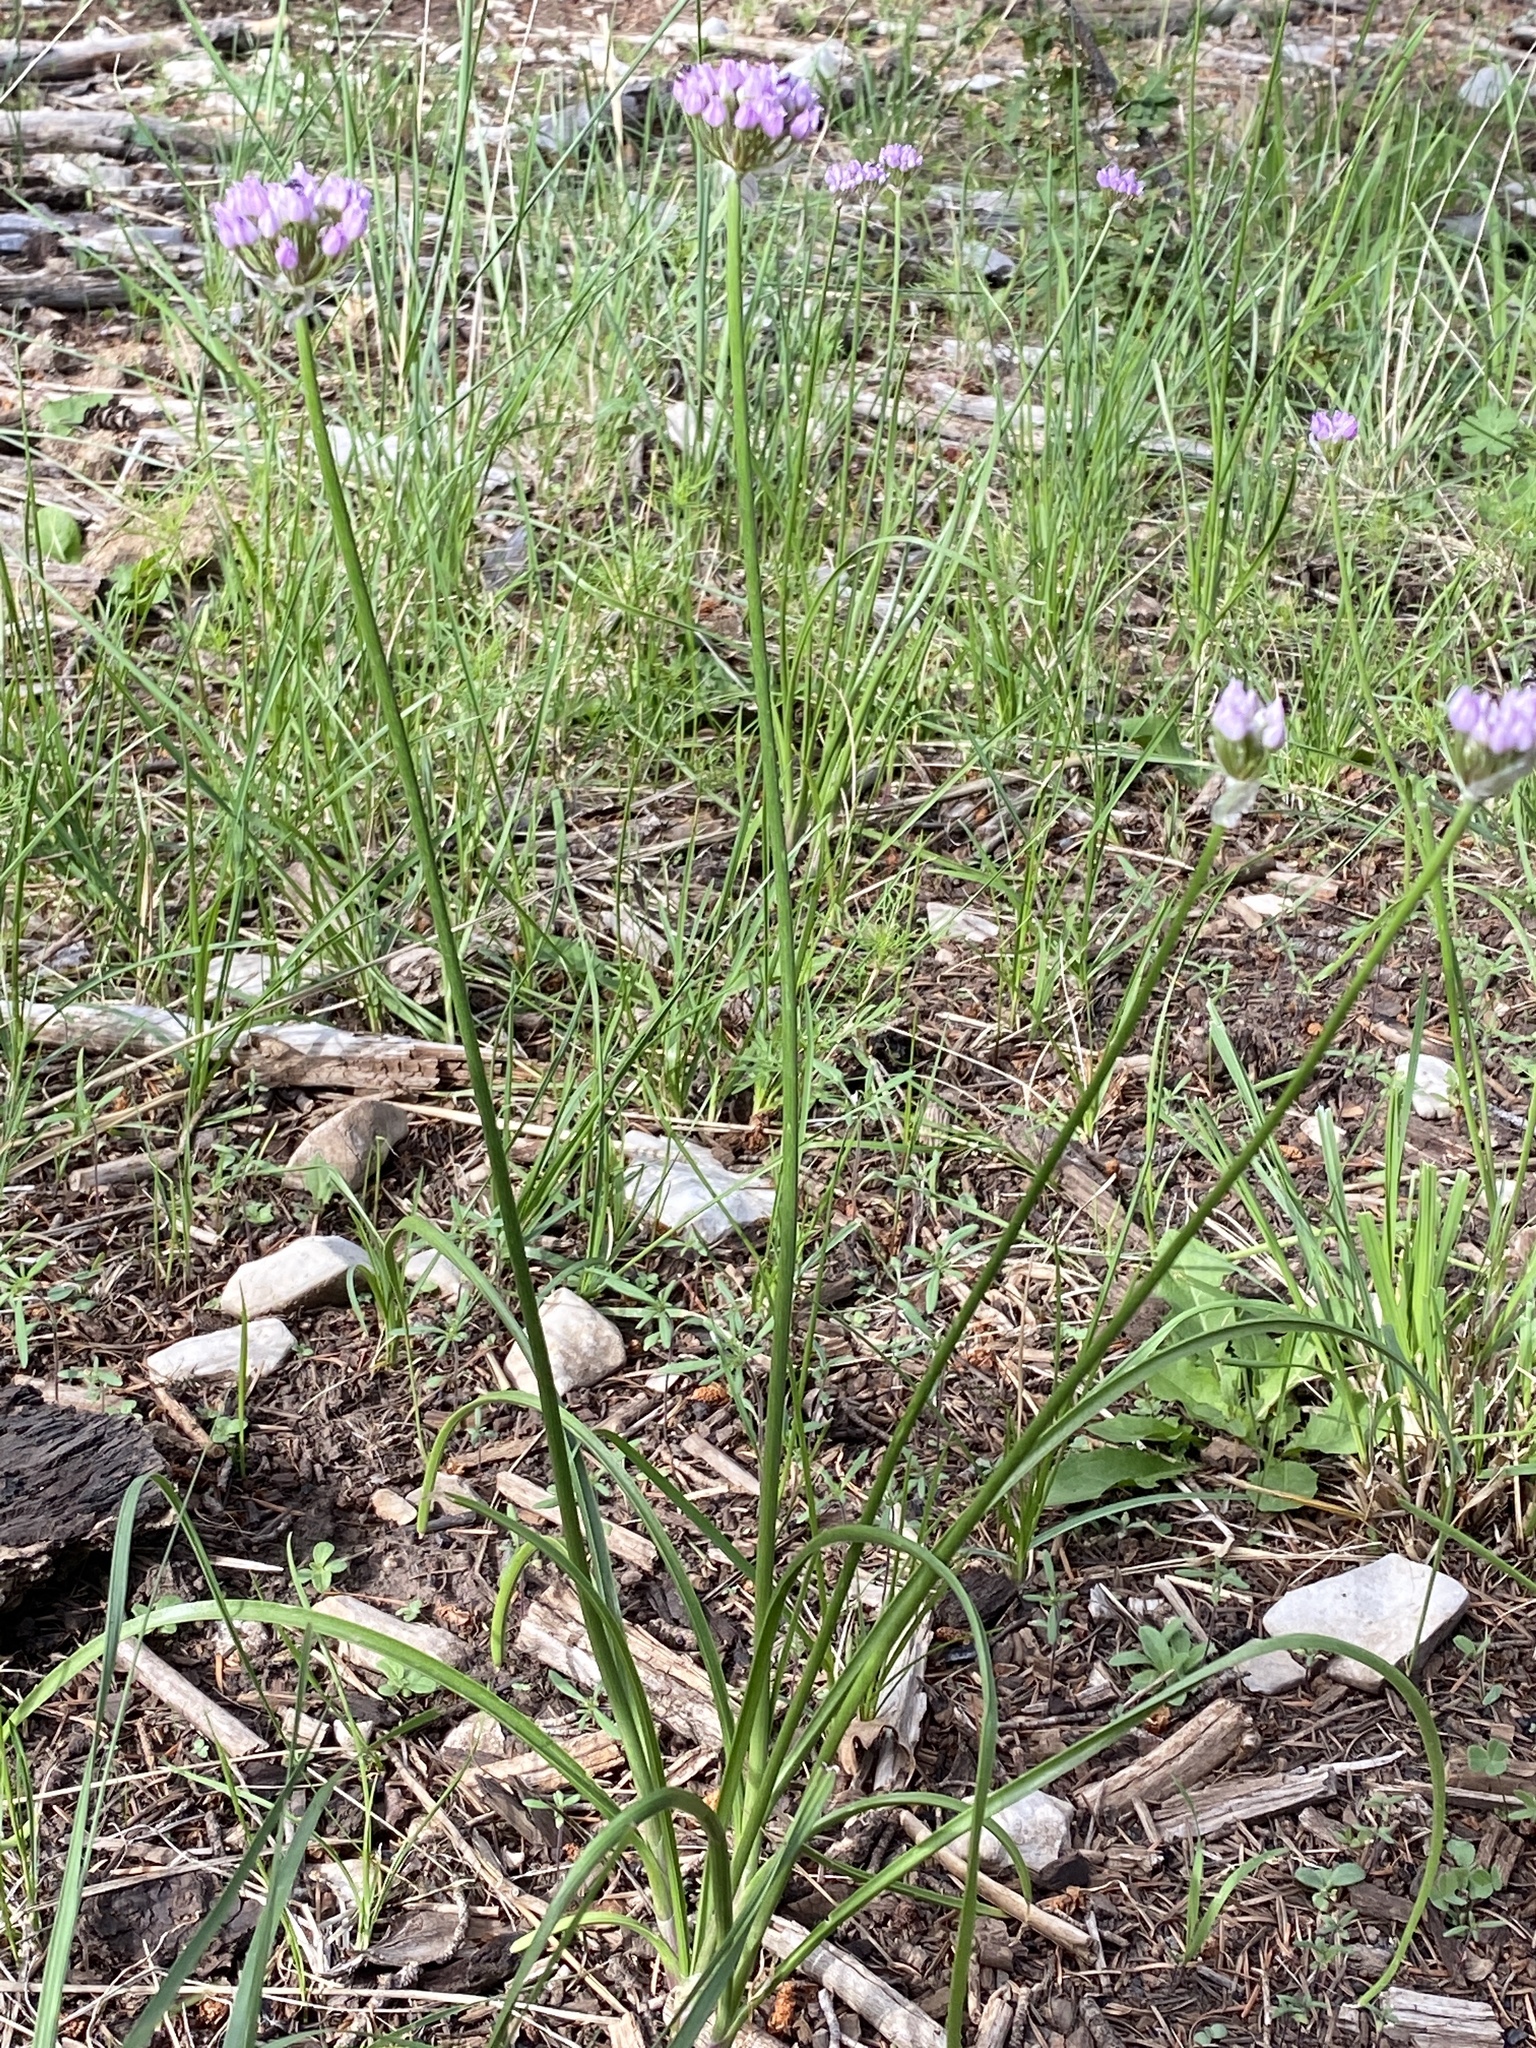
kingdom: Plantae
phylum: Tracheophyta
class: Liliopsida
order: Asparagales
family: Amaryllidaceae
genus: Allium
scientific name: Allium geyeri
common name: Geyer's onion
